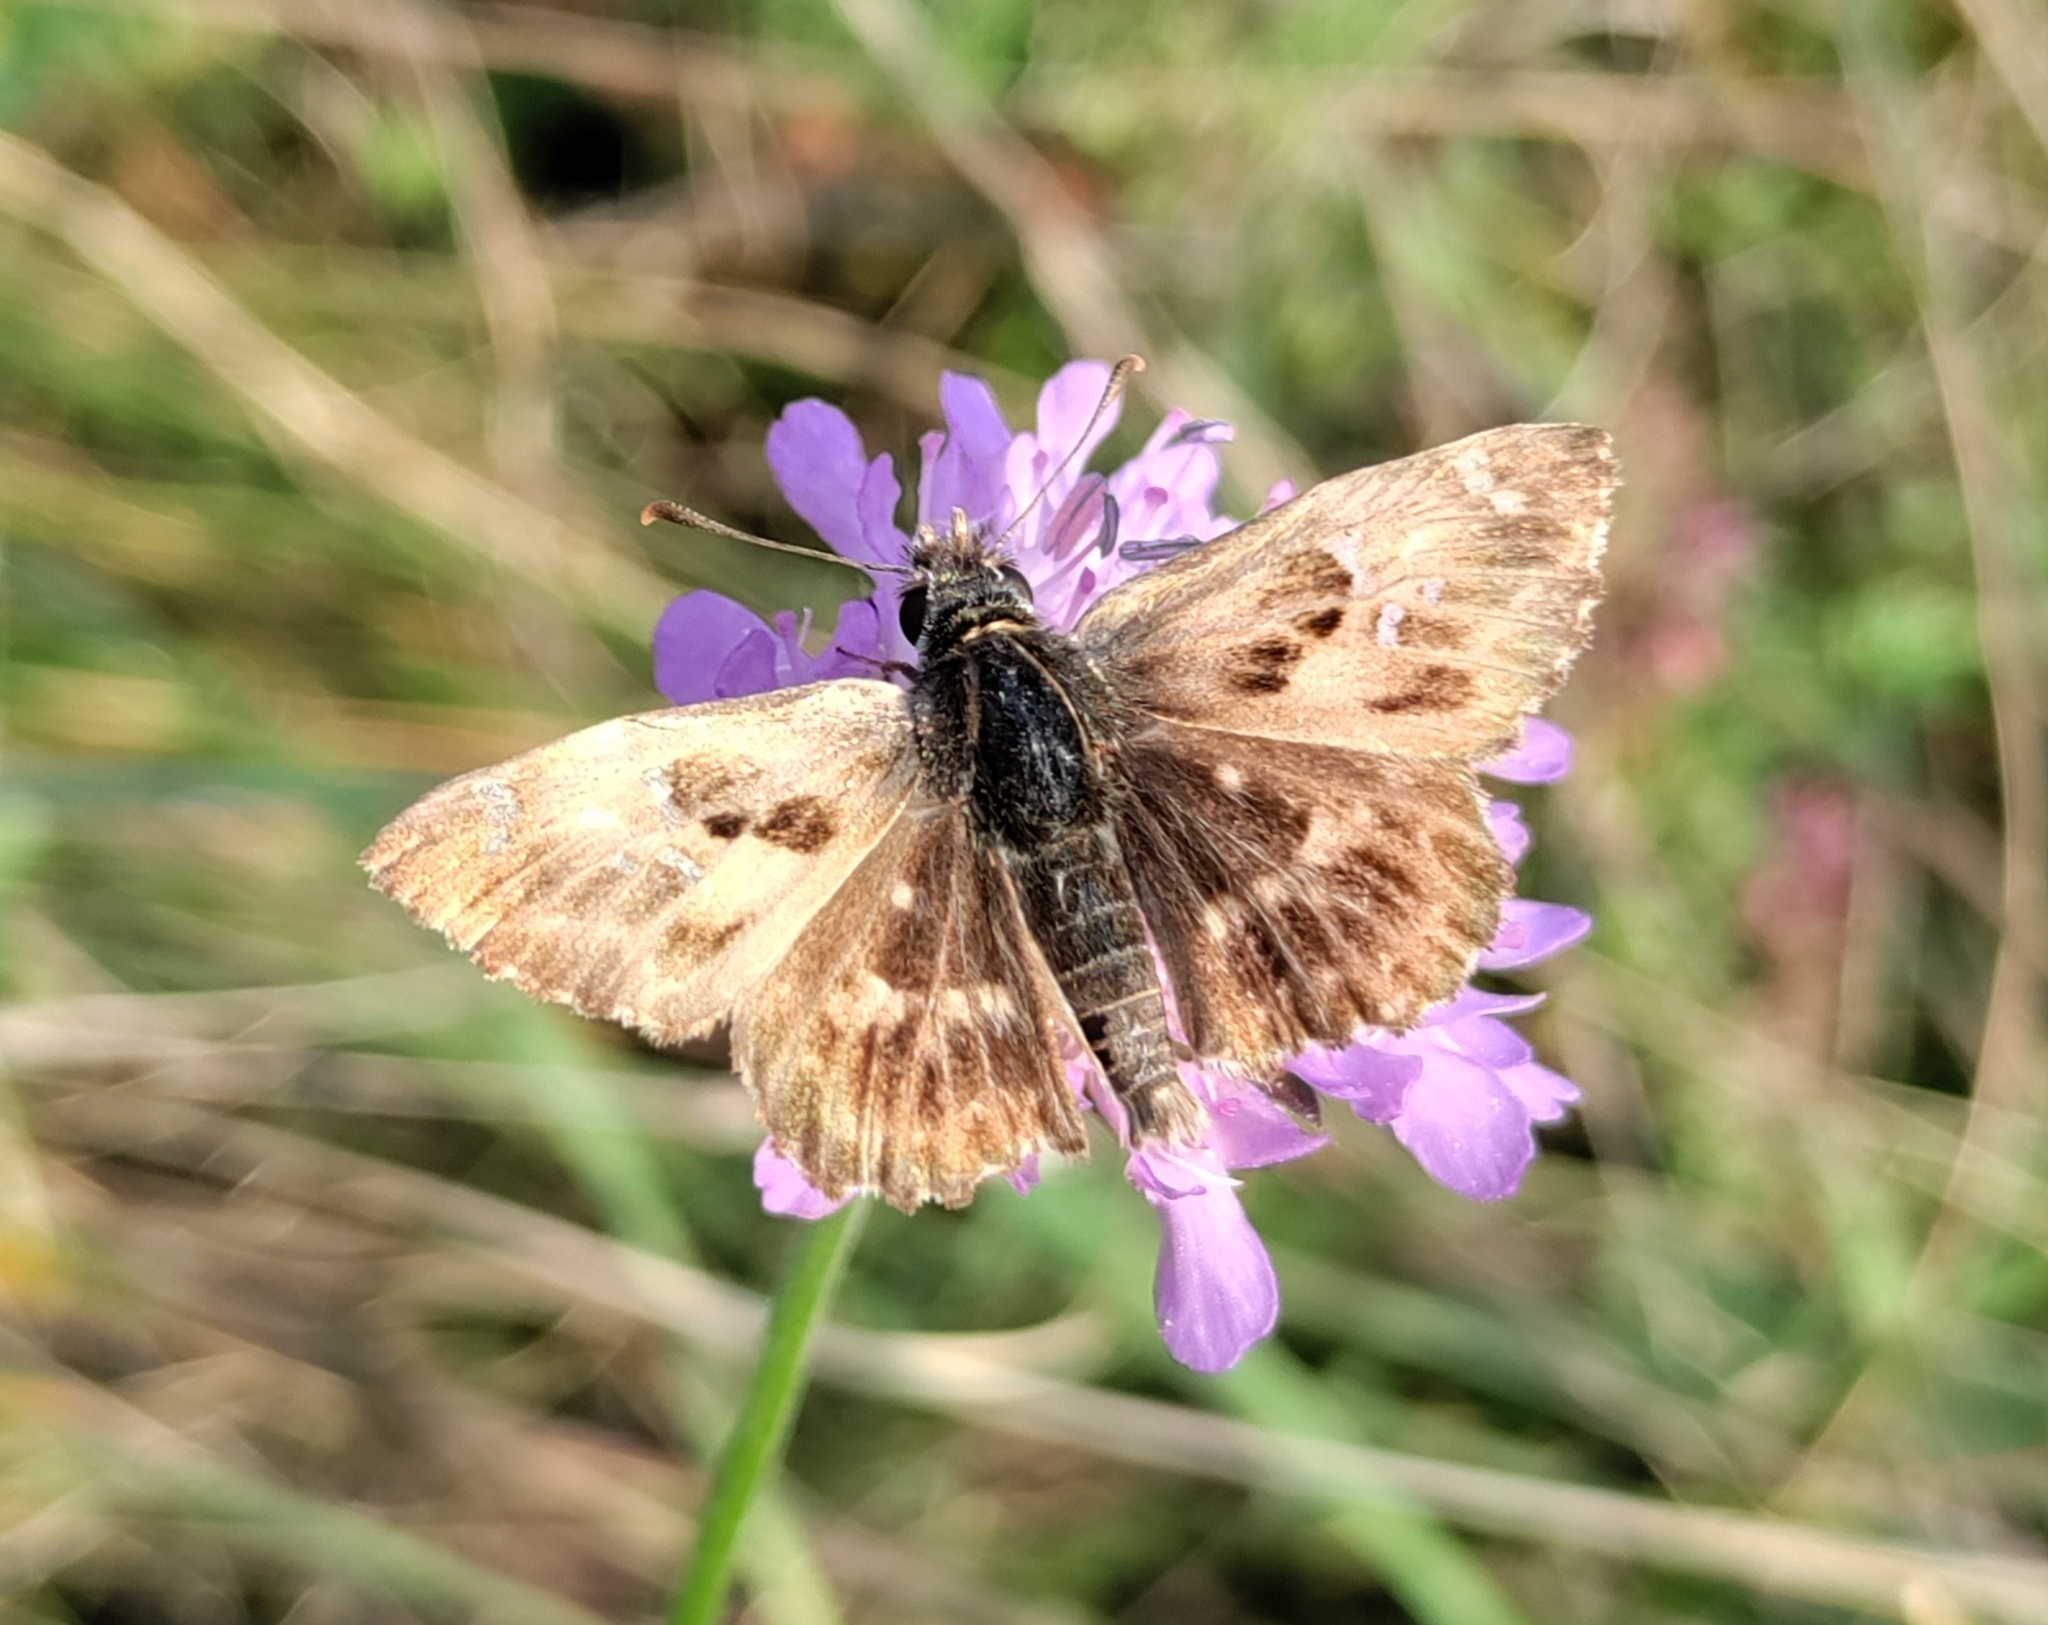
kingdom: Animalia
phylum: Arthropoda
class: Insecta
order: Lepidoptera
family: Hesperiidae
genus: Carcharodus
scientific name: Carcharodus alceae
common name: Mallow skipper
